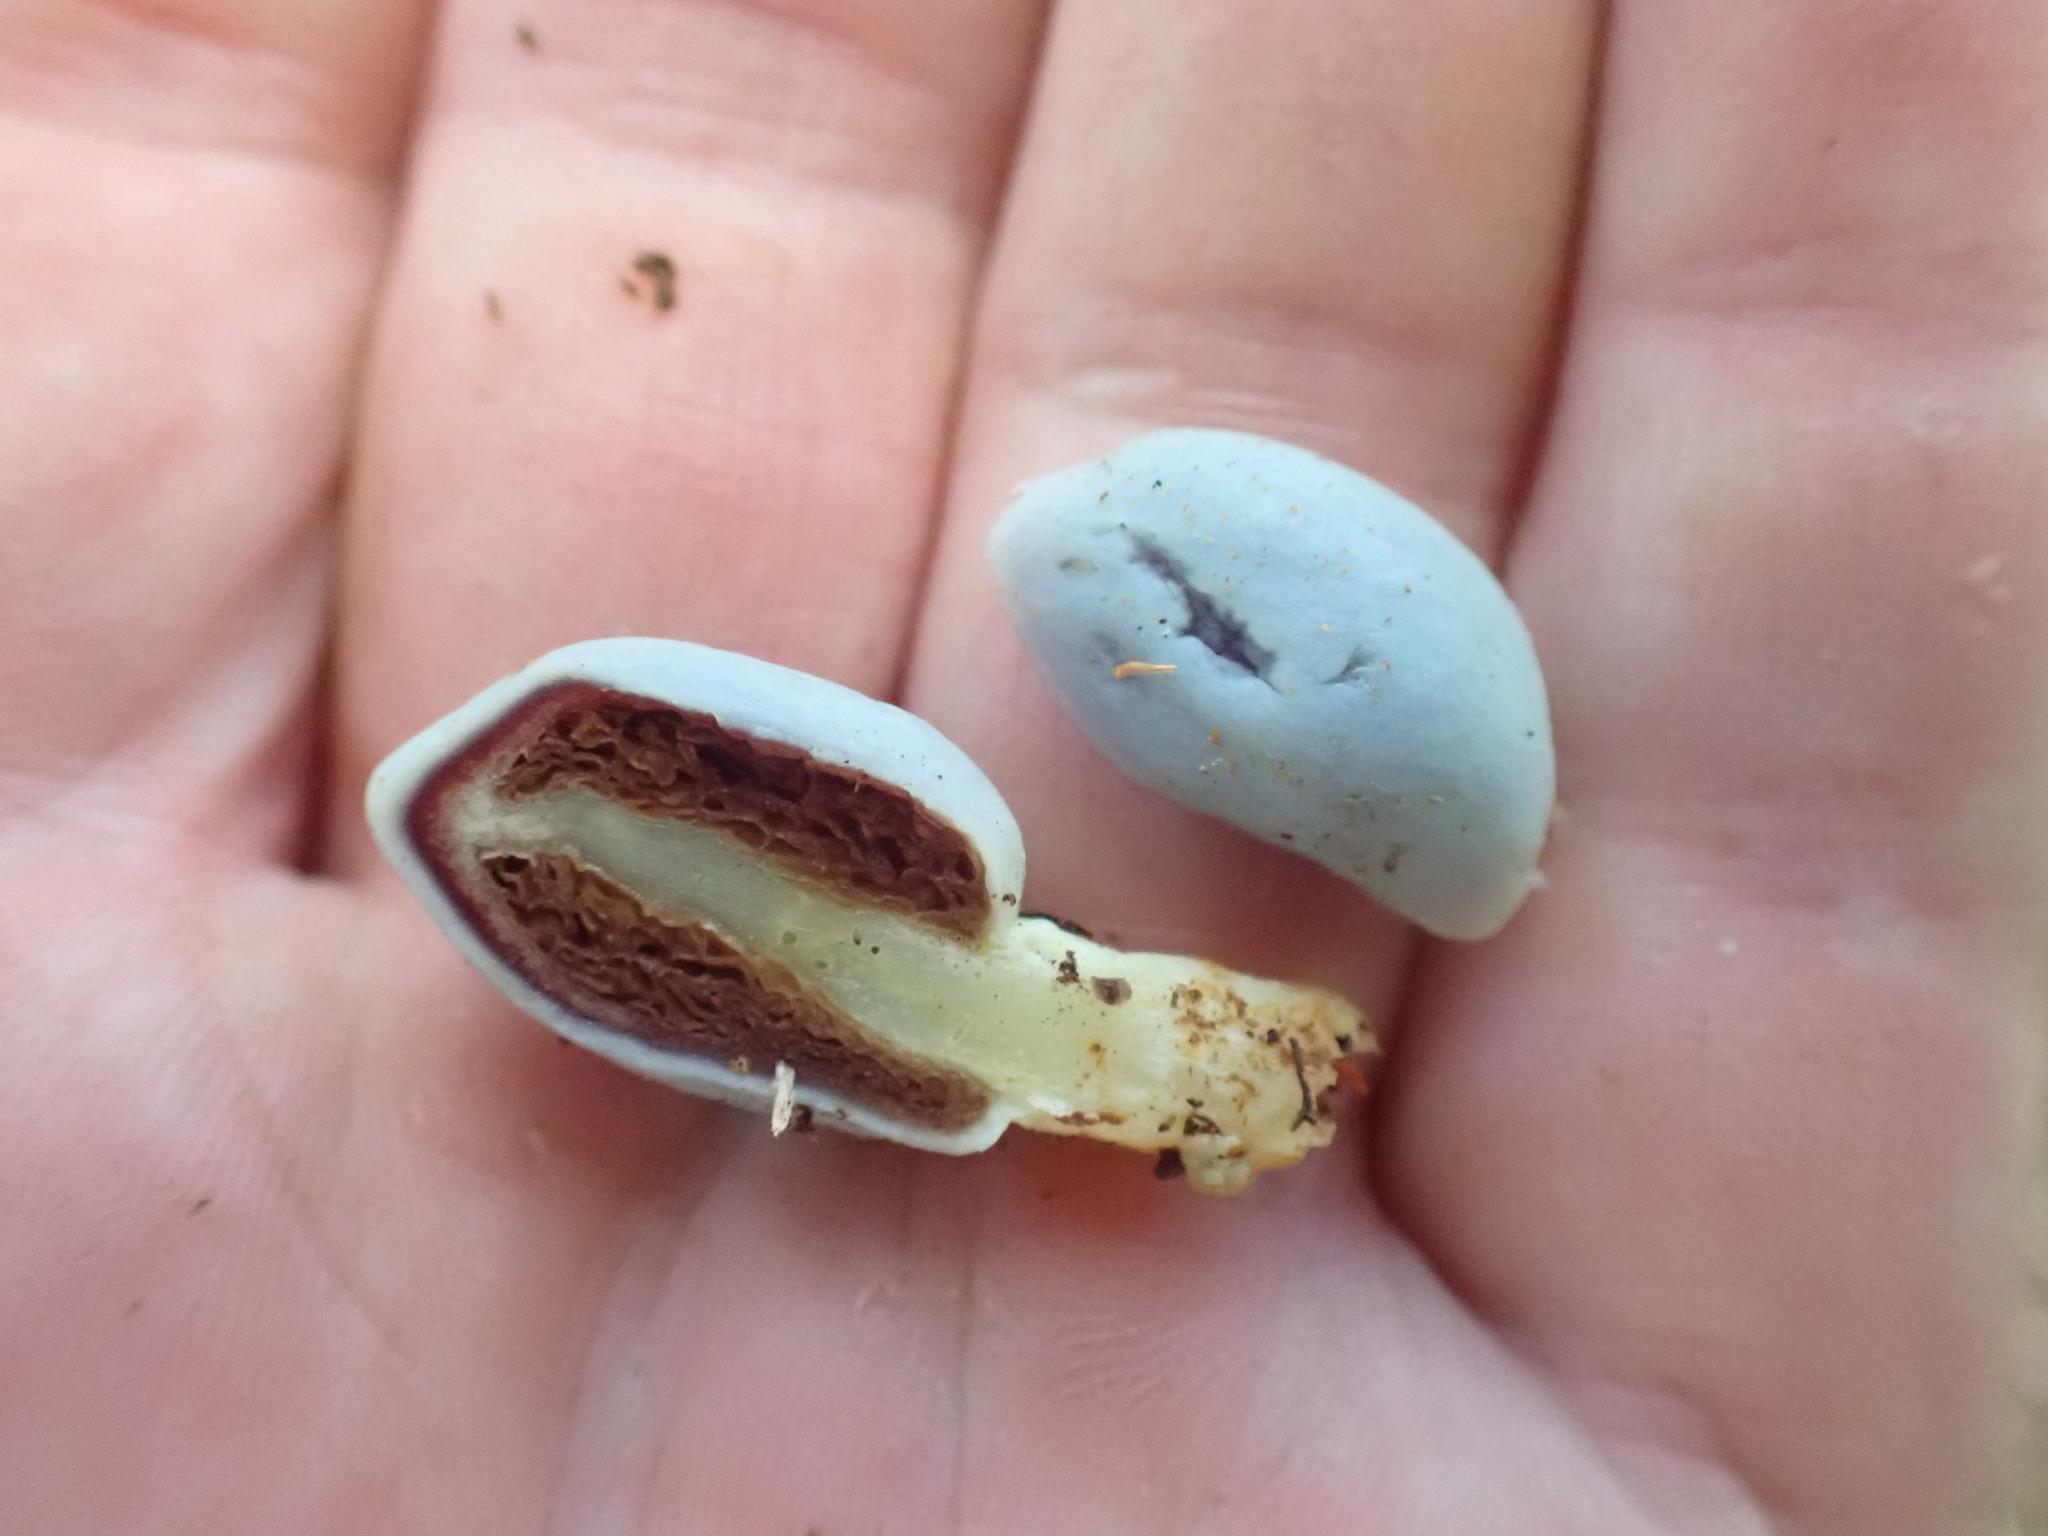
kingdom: Fungi
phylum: Basidiomycota
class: Agaricomycetes
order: Agaricales
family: Agaricaceae
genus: Clavogaster
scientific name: Clavogaster virescens
